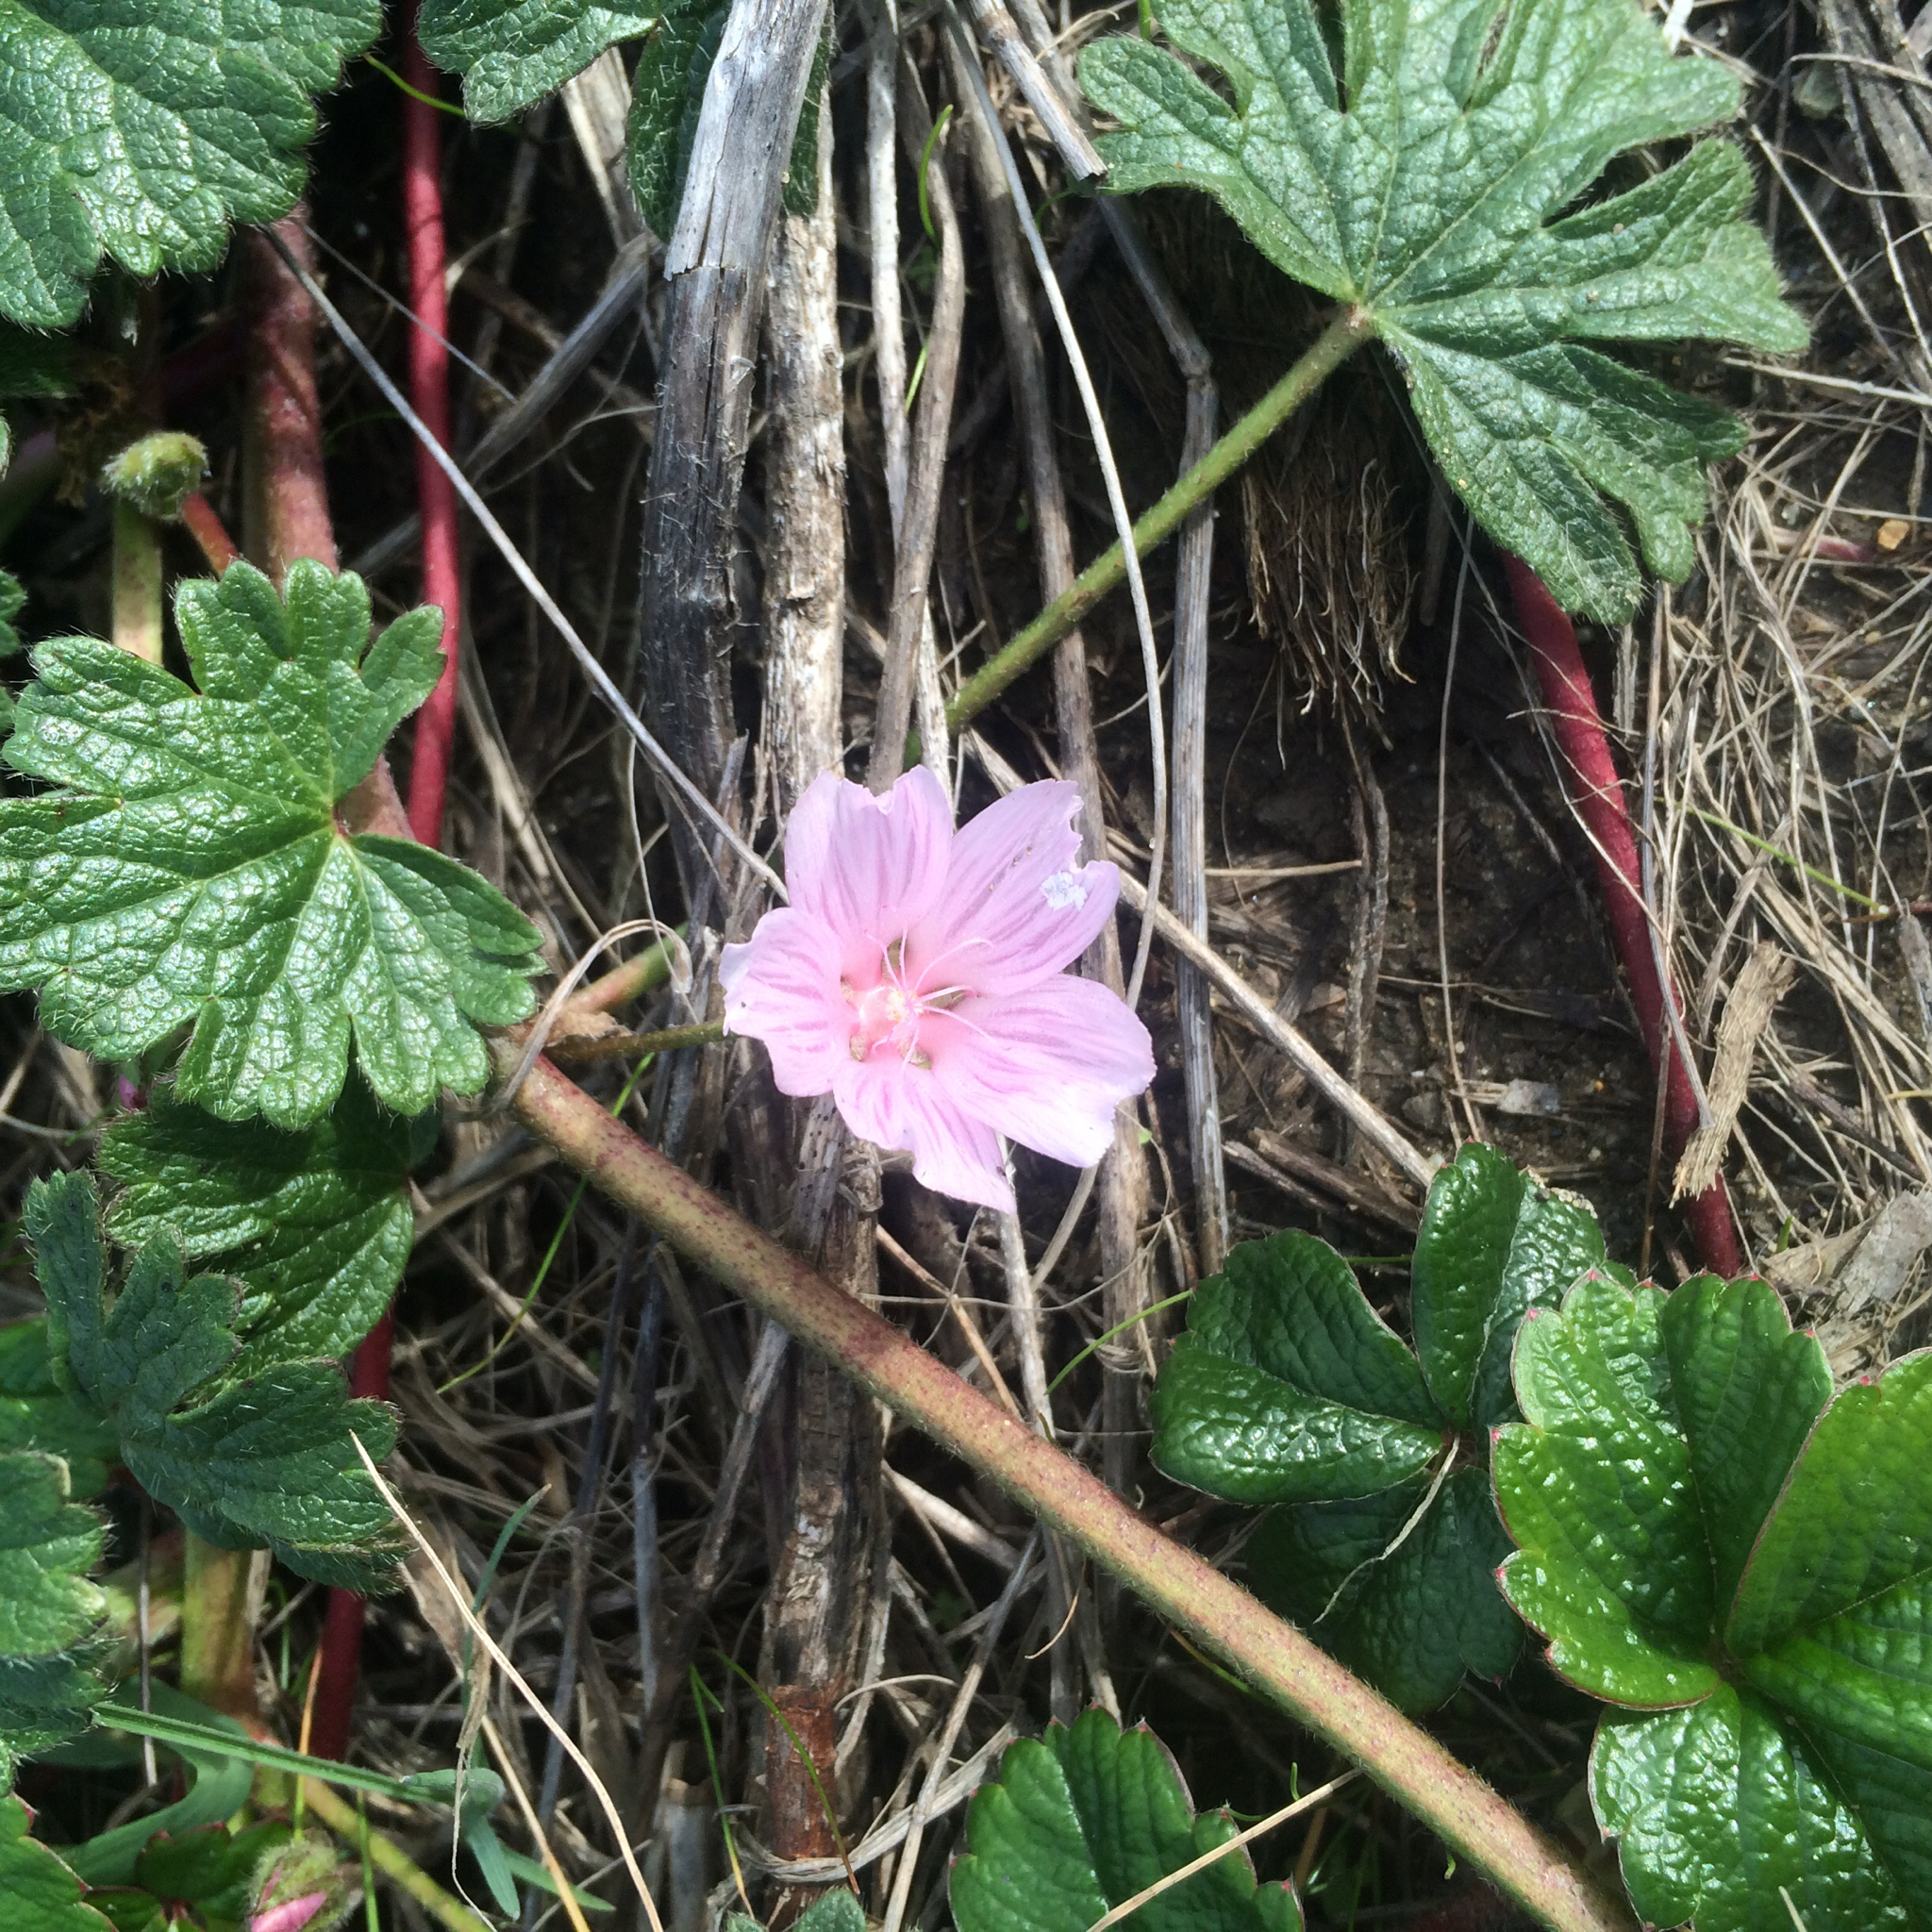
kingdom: Plantae
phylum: Tracheophyta
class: Magnoliopsida
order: Malvales
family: Malvaceae
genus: Sidalcea
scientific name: Sidalcea malviflora
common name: Greek mallow
